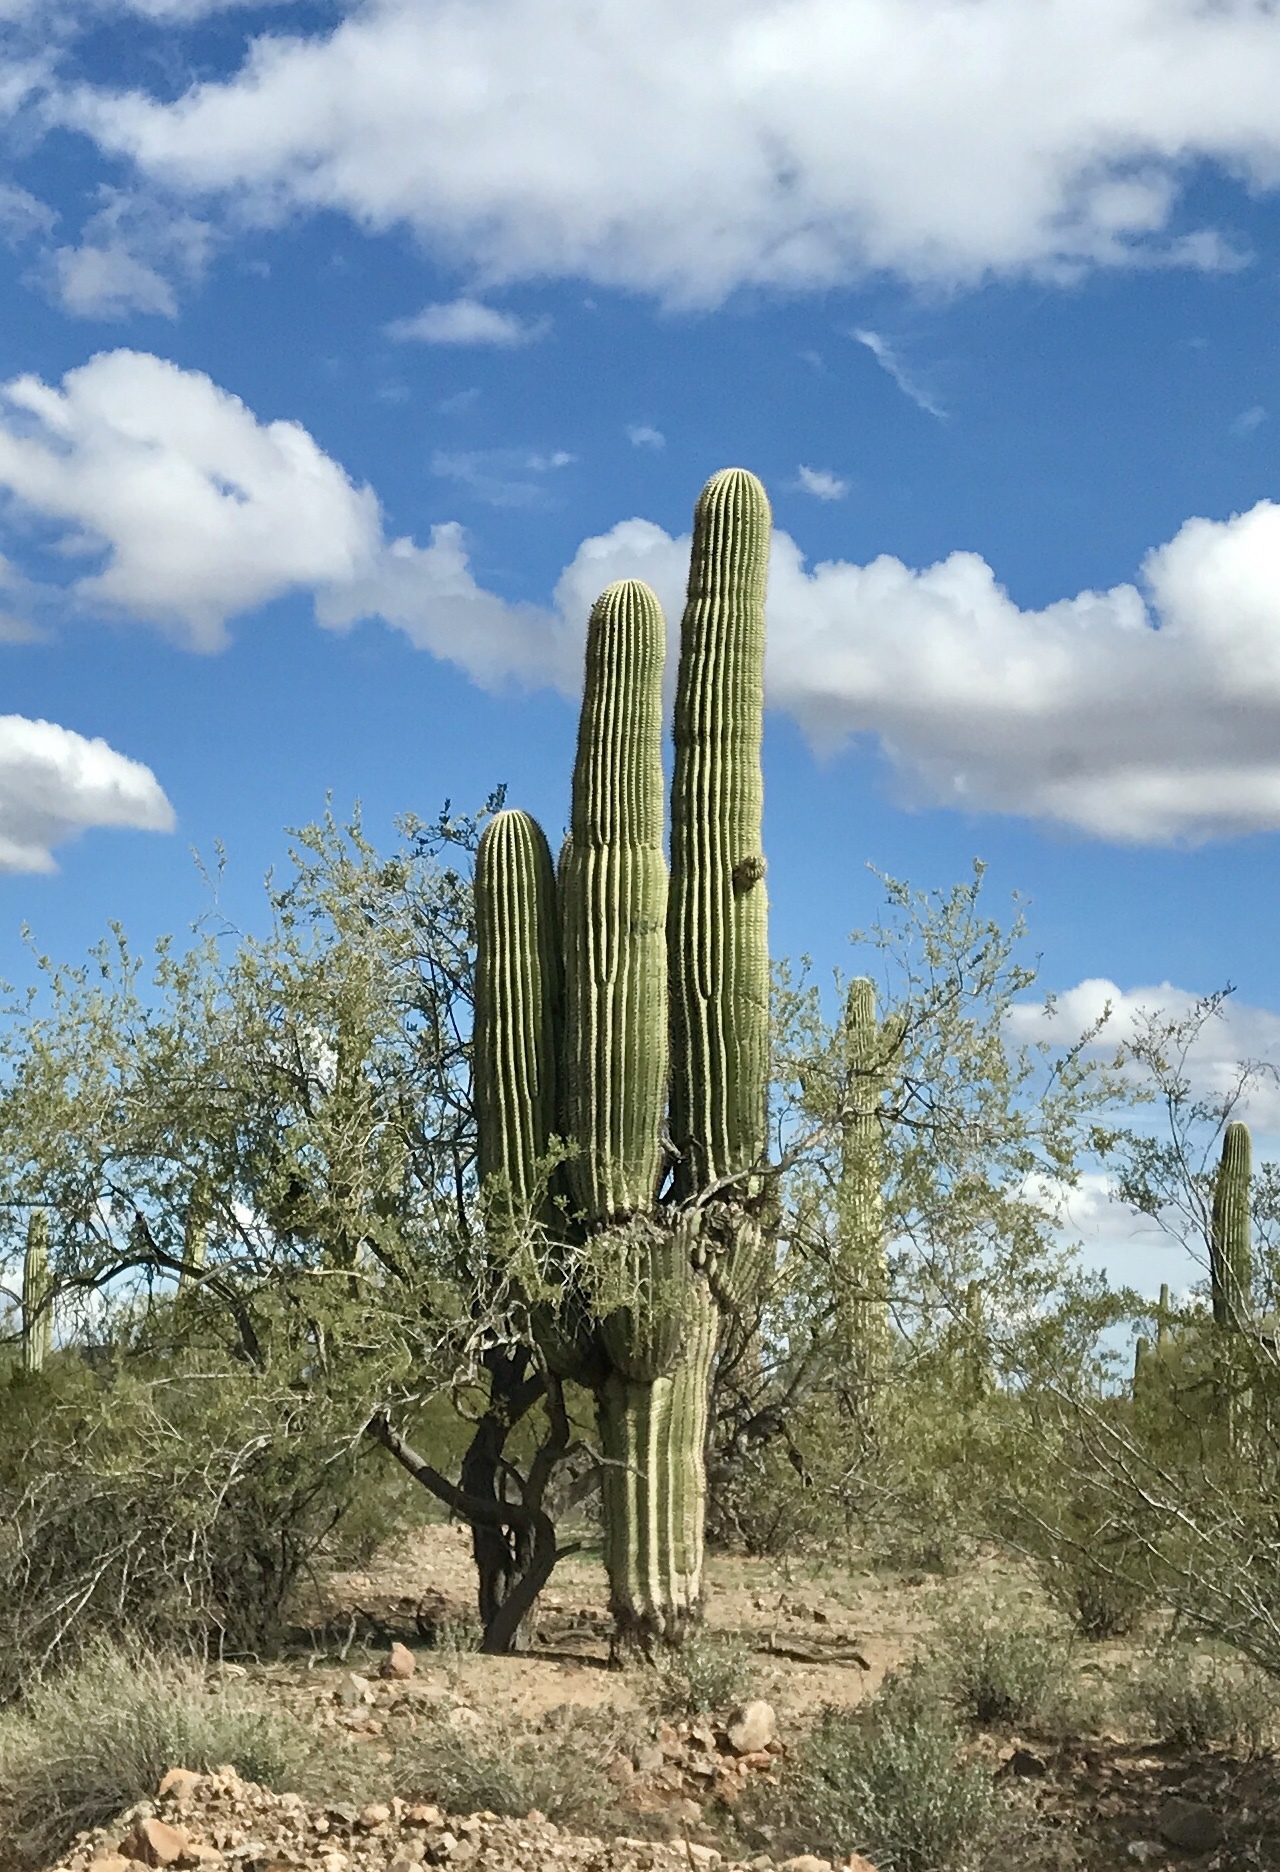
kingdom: Plantae
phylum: Tracheophyta
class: Magnoliopsida
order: Caryophyllales
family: Cactaceae
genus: Carnegiea
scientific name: Carnegiea gigantea
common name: Saguaro
